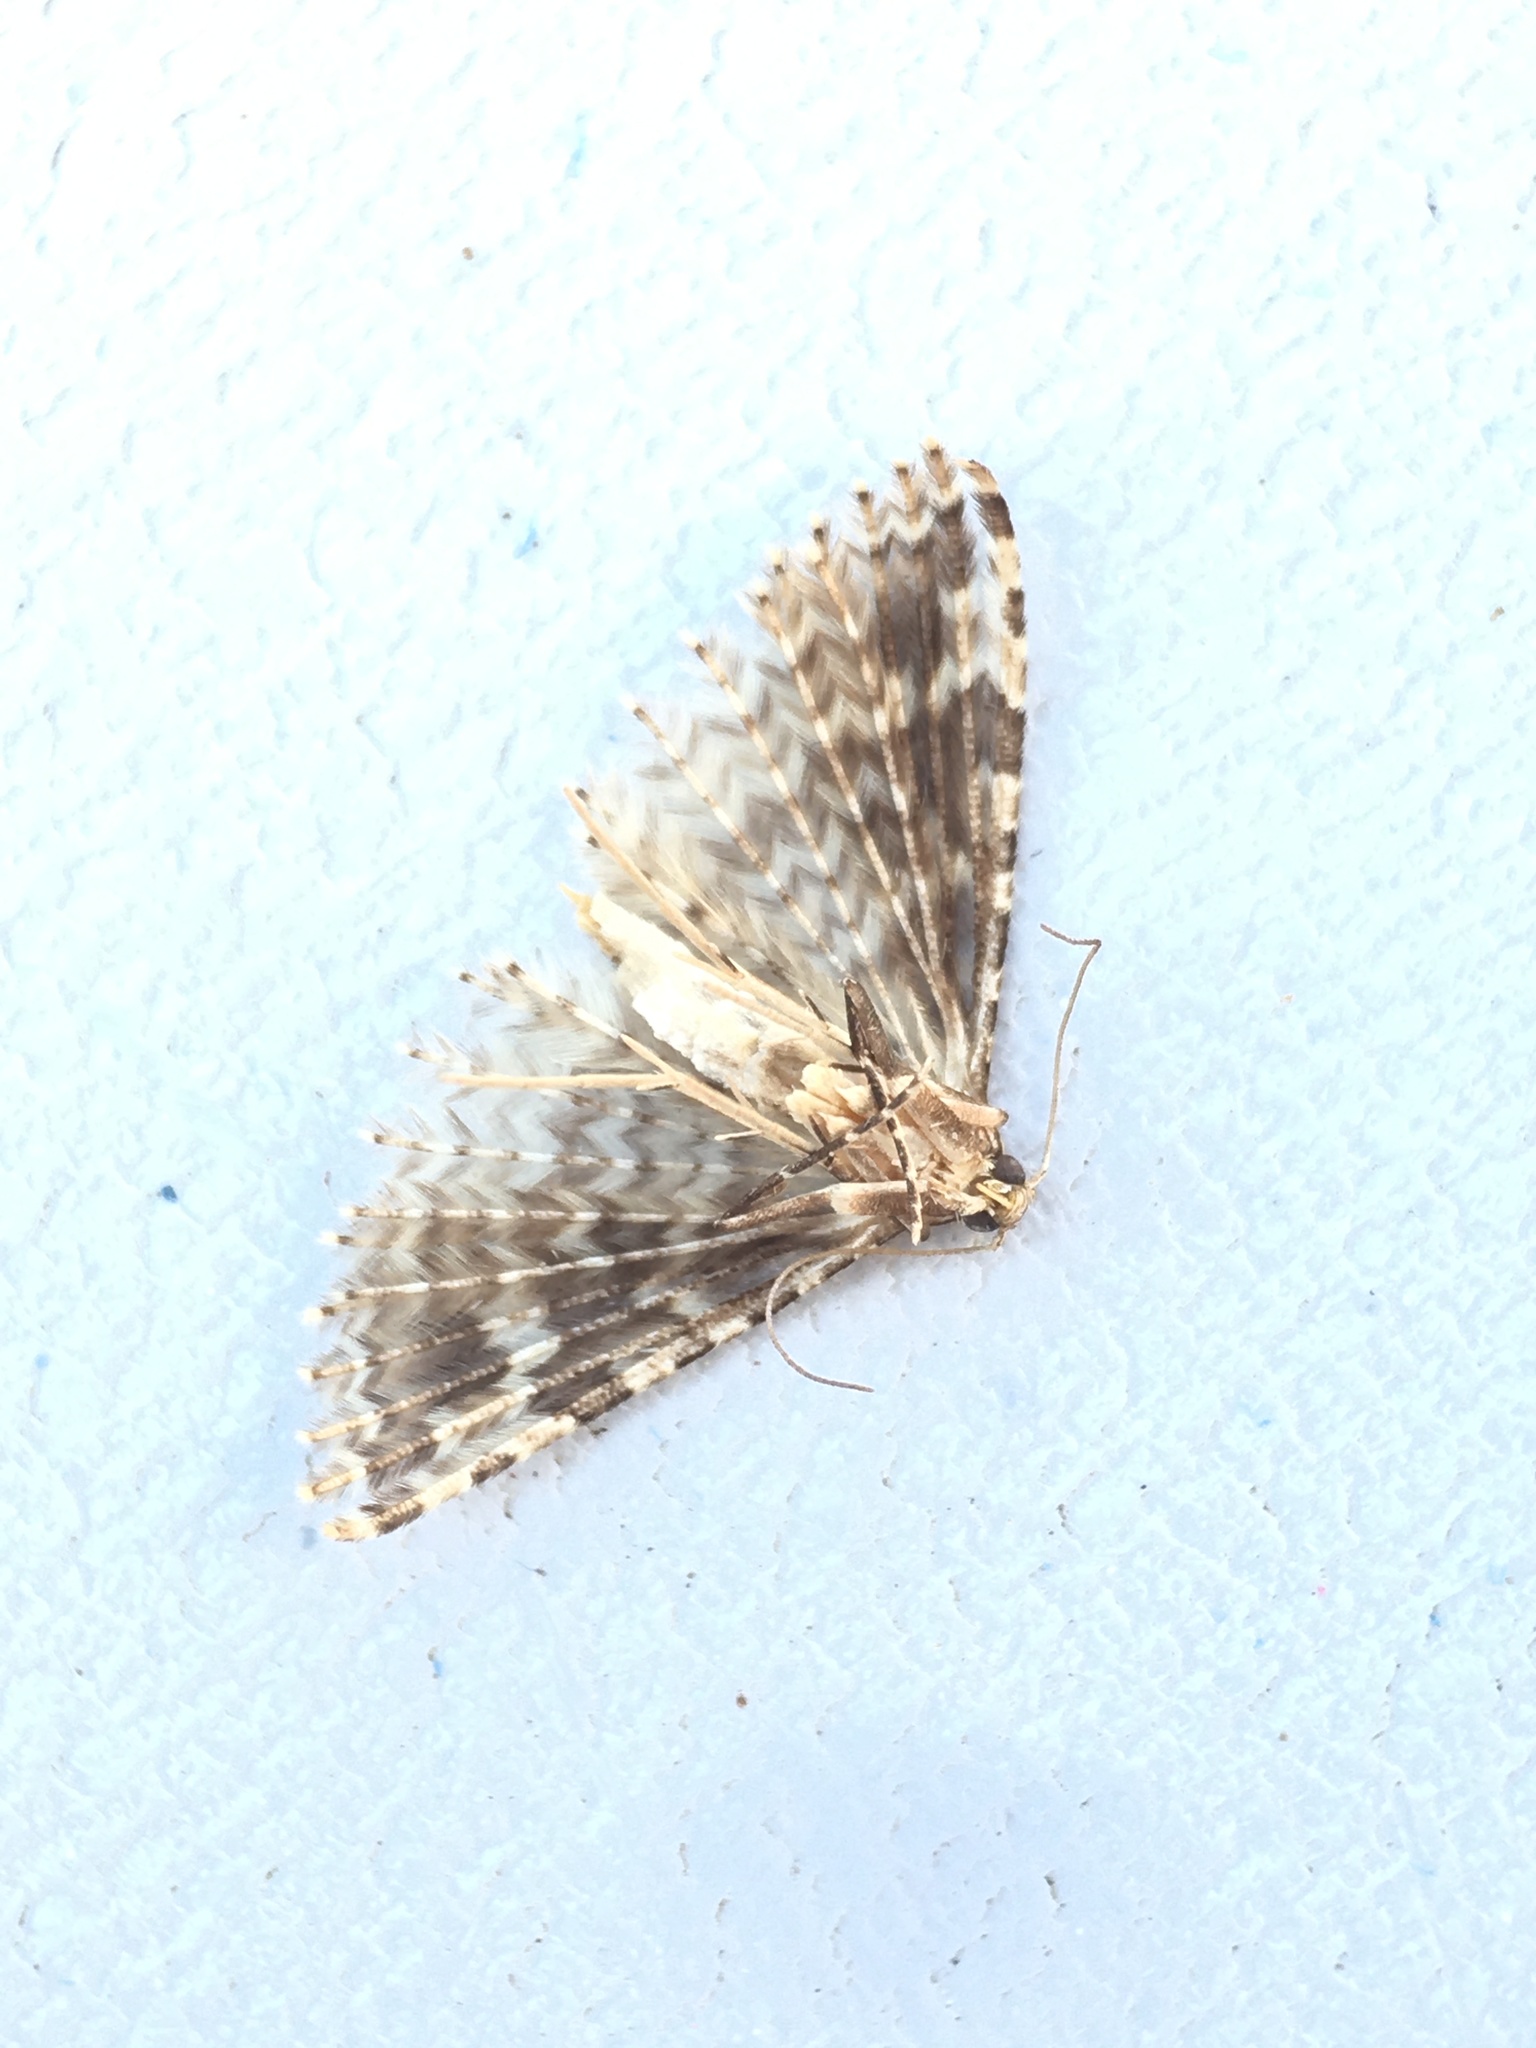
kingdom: Animalia
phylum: Arthropoda
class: Insecta
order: Lepidoptera
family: Alucitidae
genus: Alucita
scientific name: Alucita hexadactyla
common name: Twenty-plume moth
